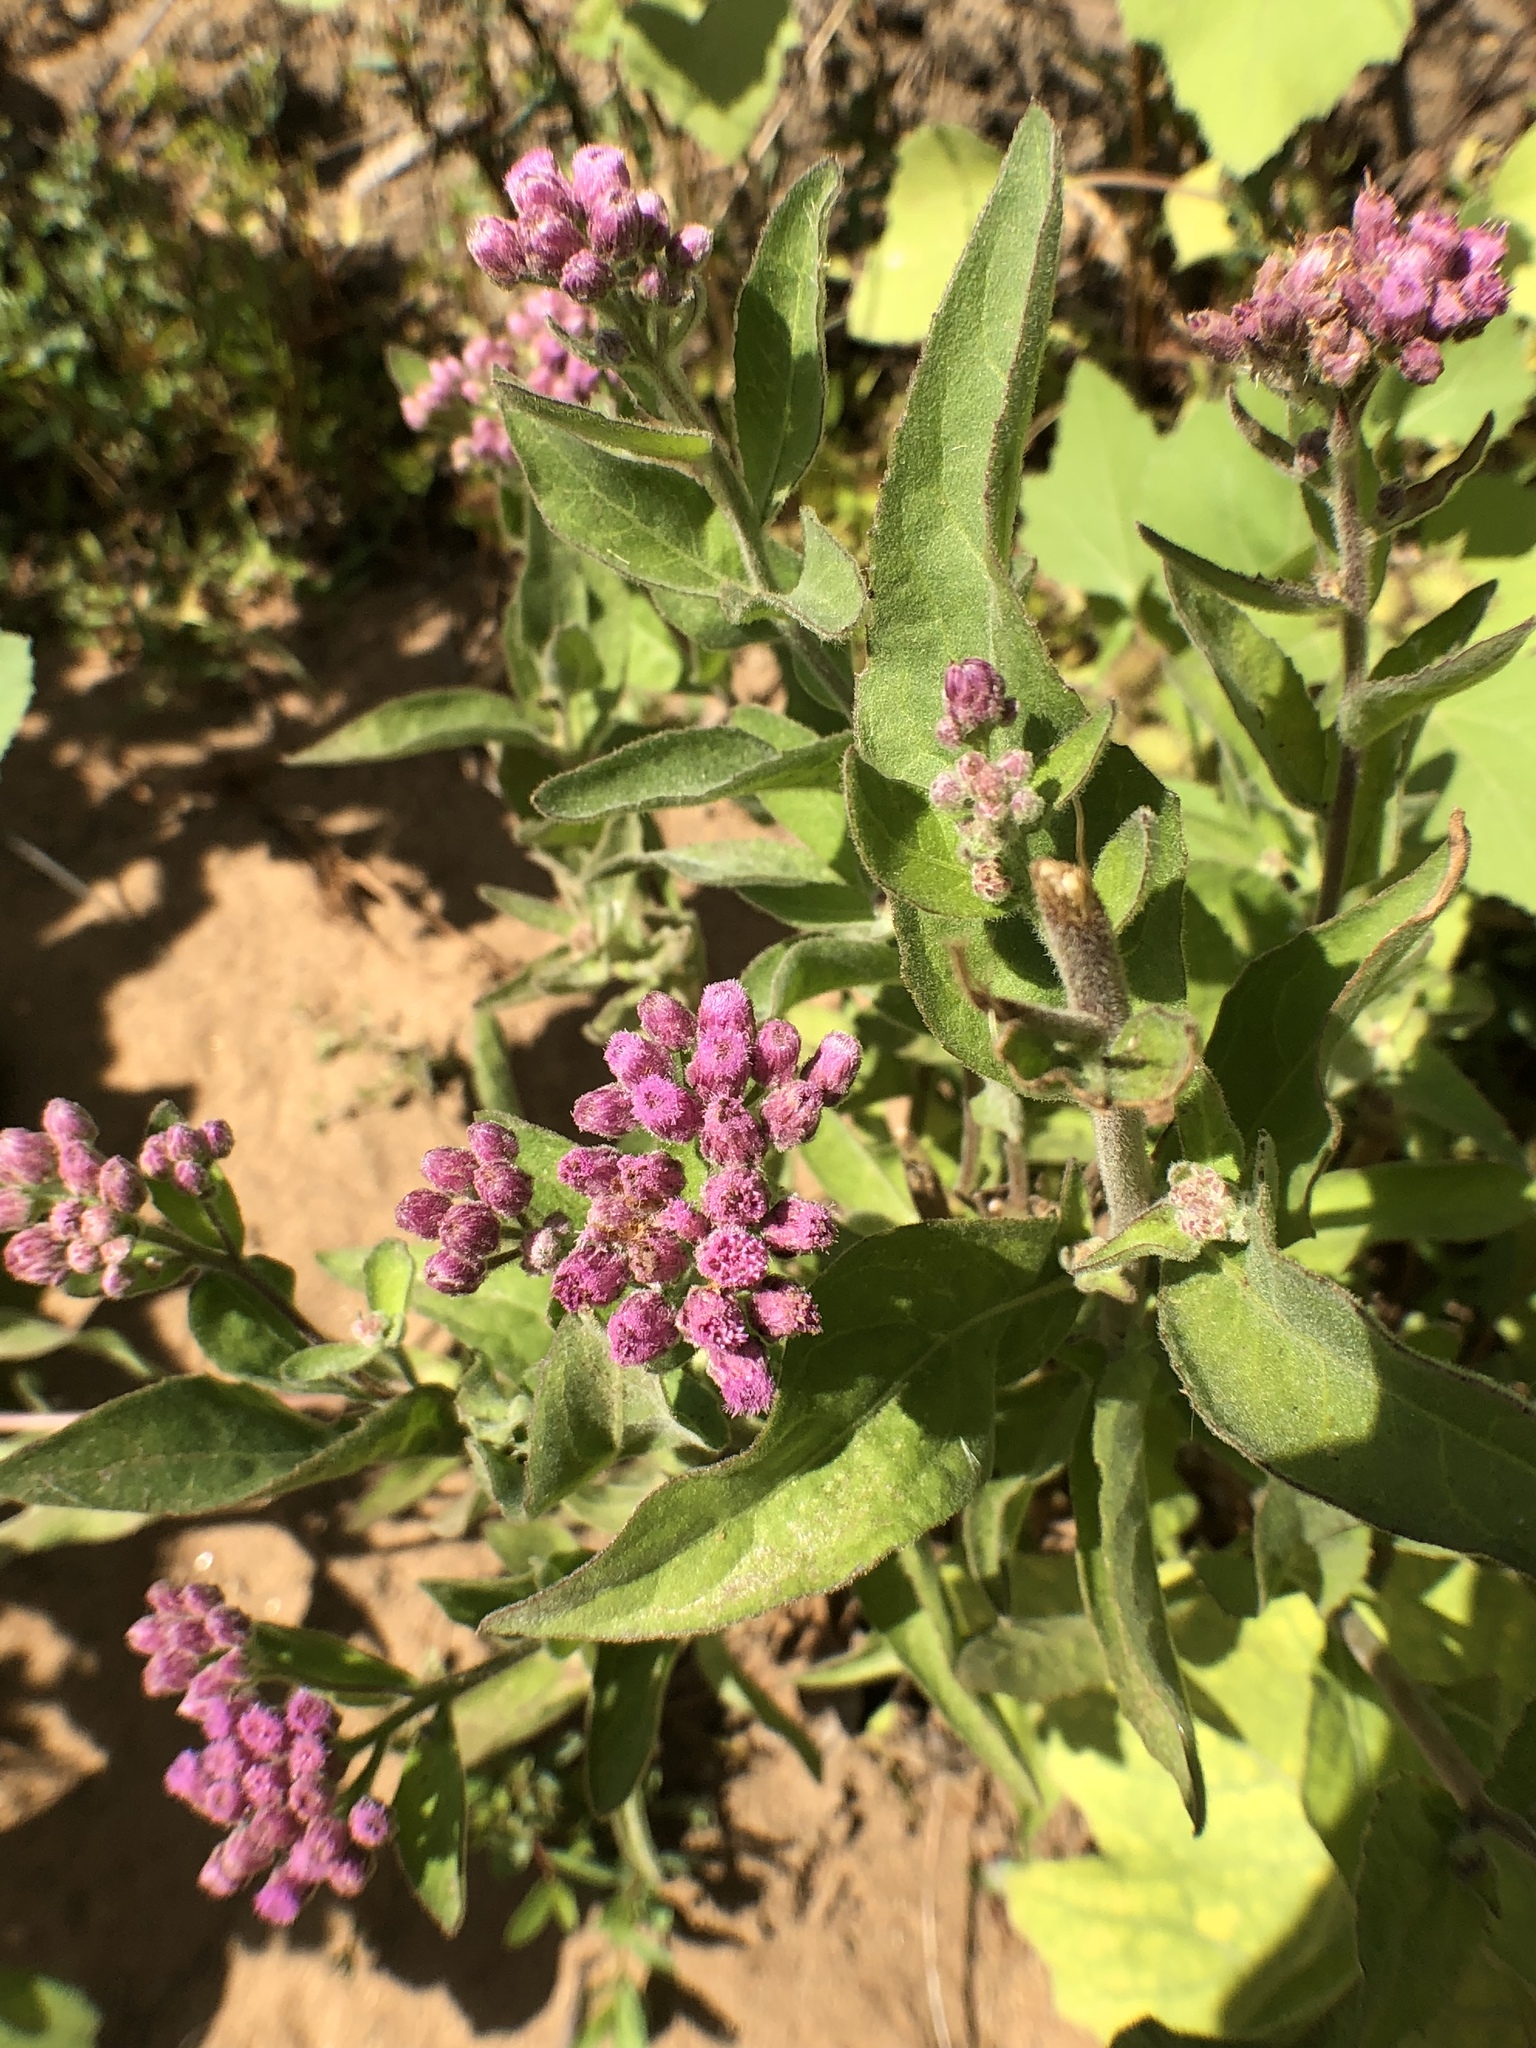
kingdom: Plantae
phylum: Tracheophyta
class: Magnoliopsida
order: Asterales
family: Asteraceae
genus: Pluchea
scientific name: Pluchea odorata
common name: Saltmarsh fleabane
